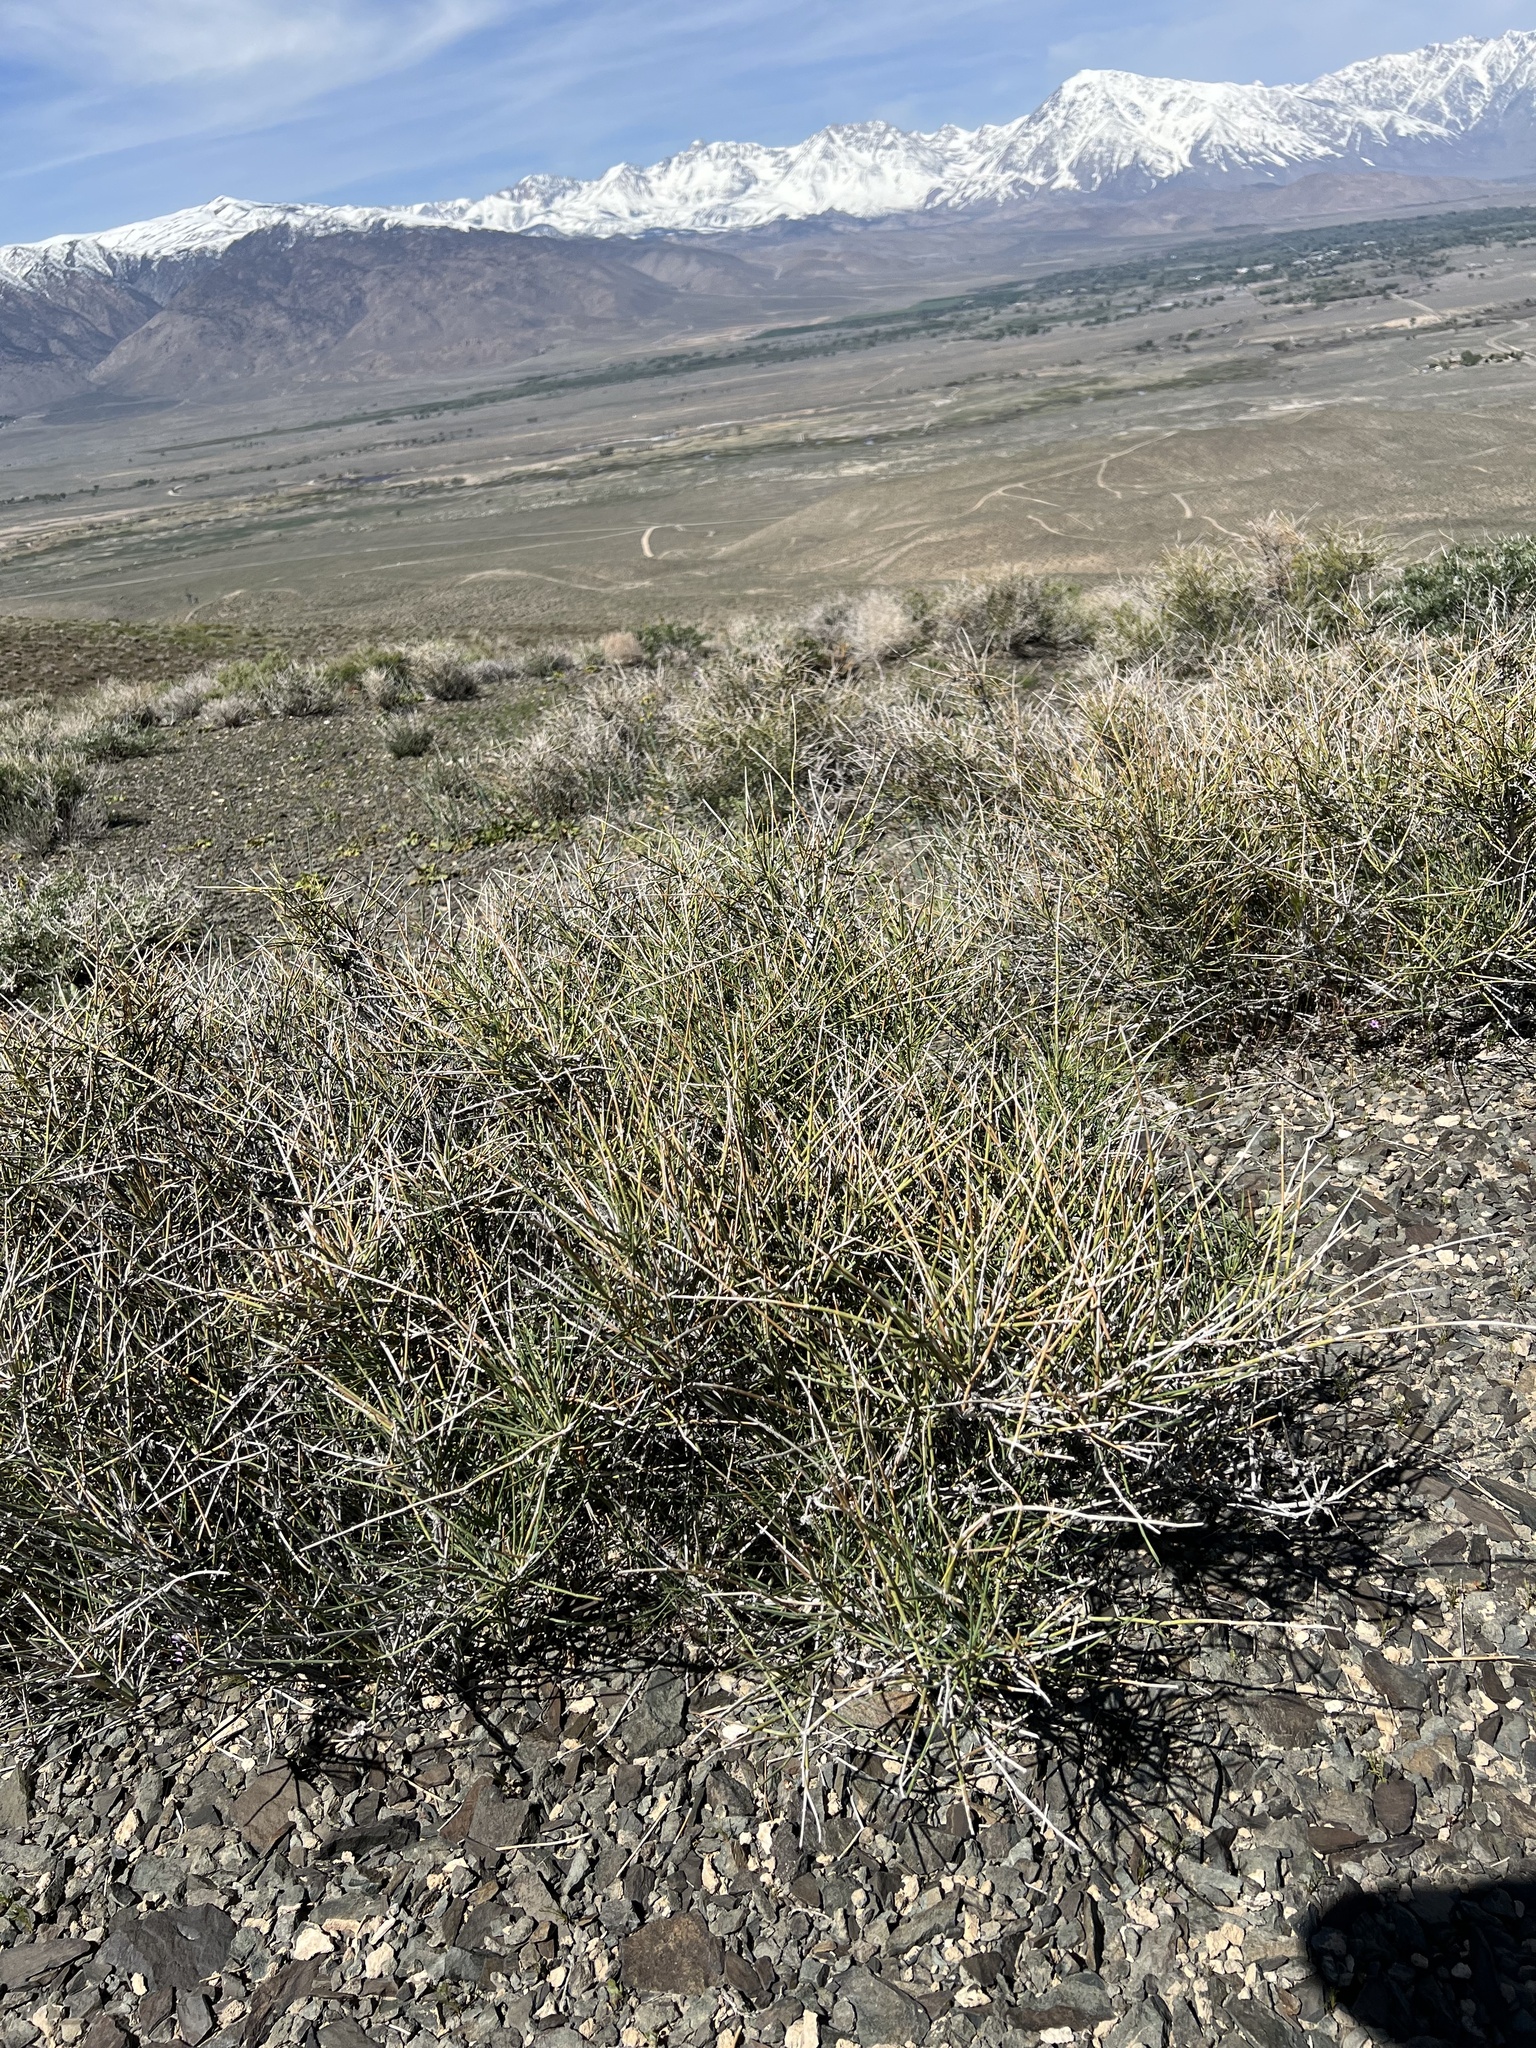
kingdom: Plantae
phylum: Tracheophyta
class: Gnetopsida
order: Ephedrales
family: Ephedraceae
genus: Ephedra
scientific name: Ephedra nevadensis
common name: Gray ephedra
